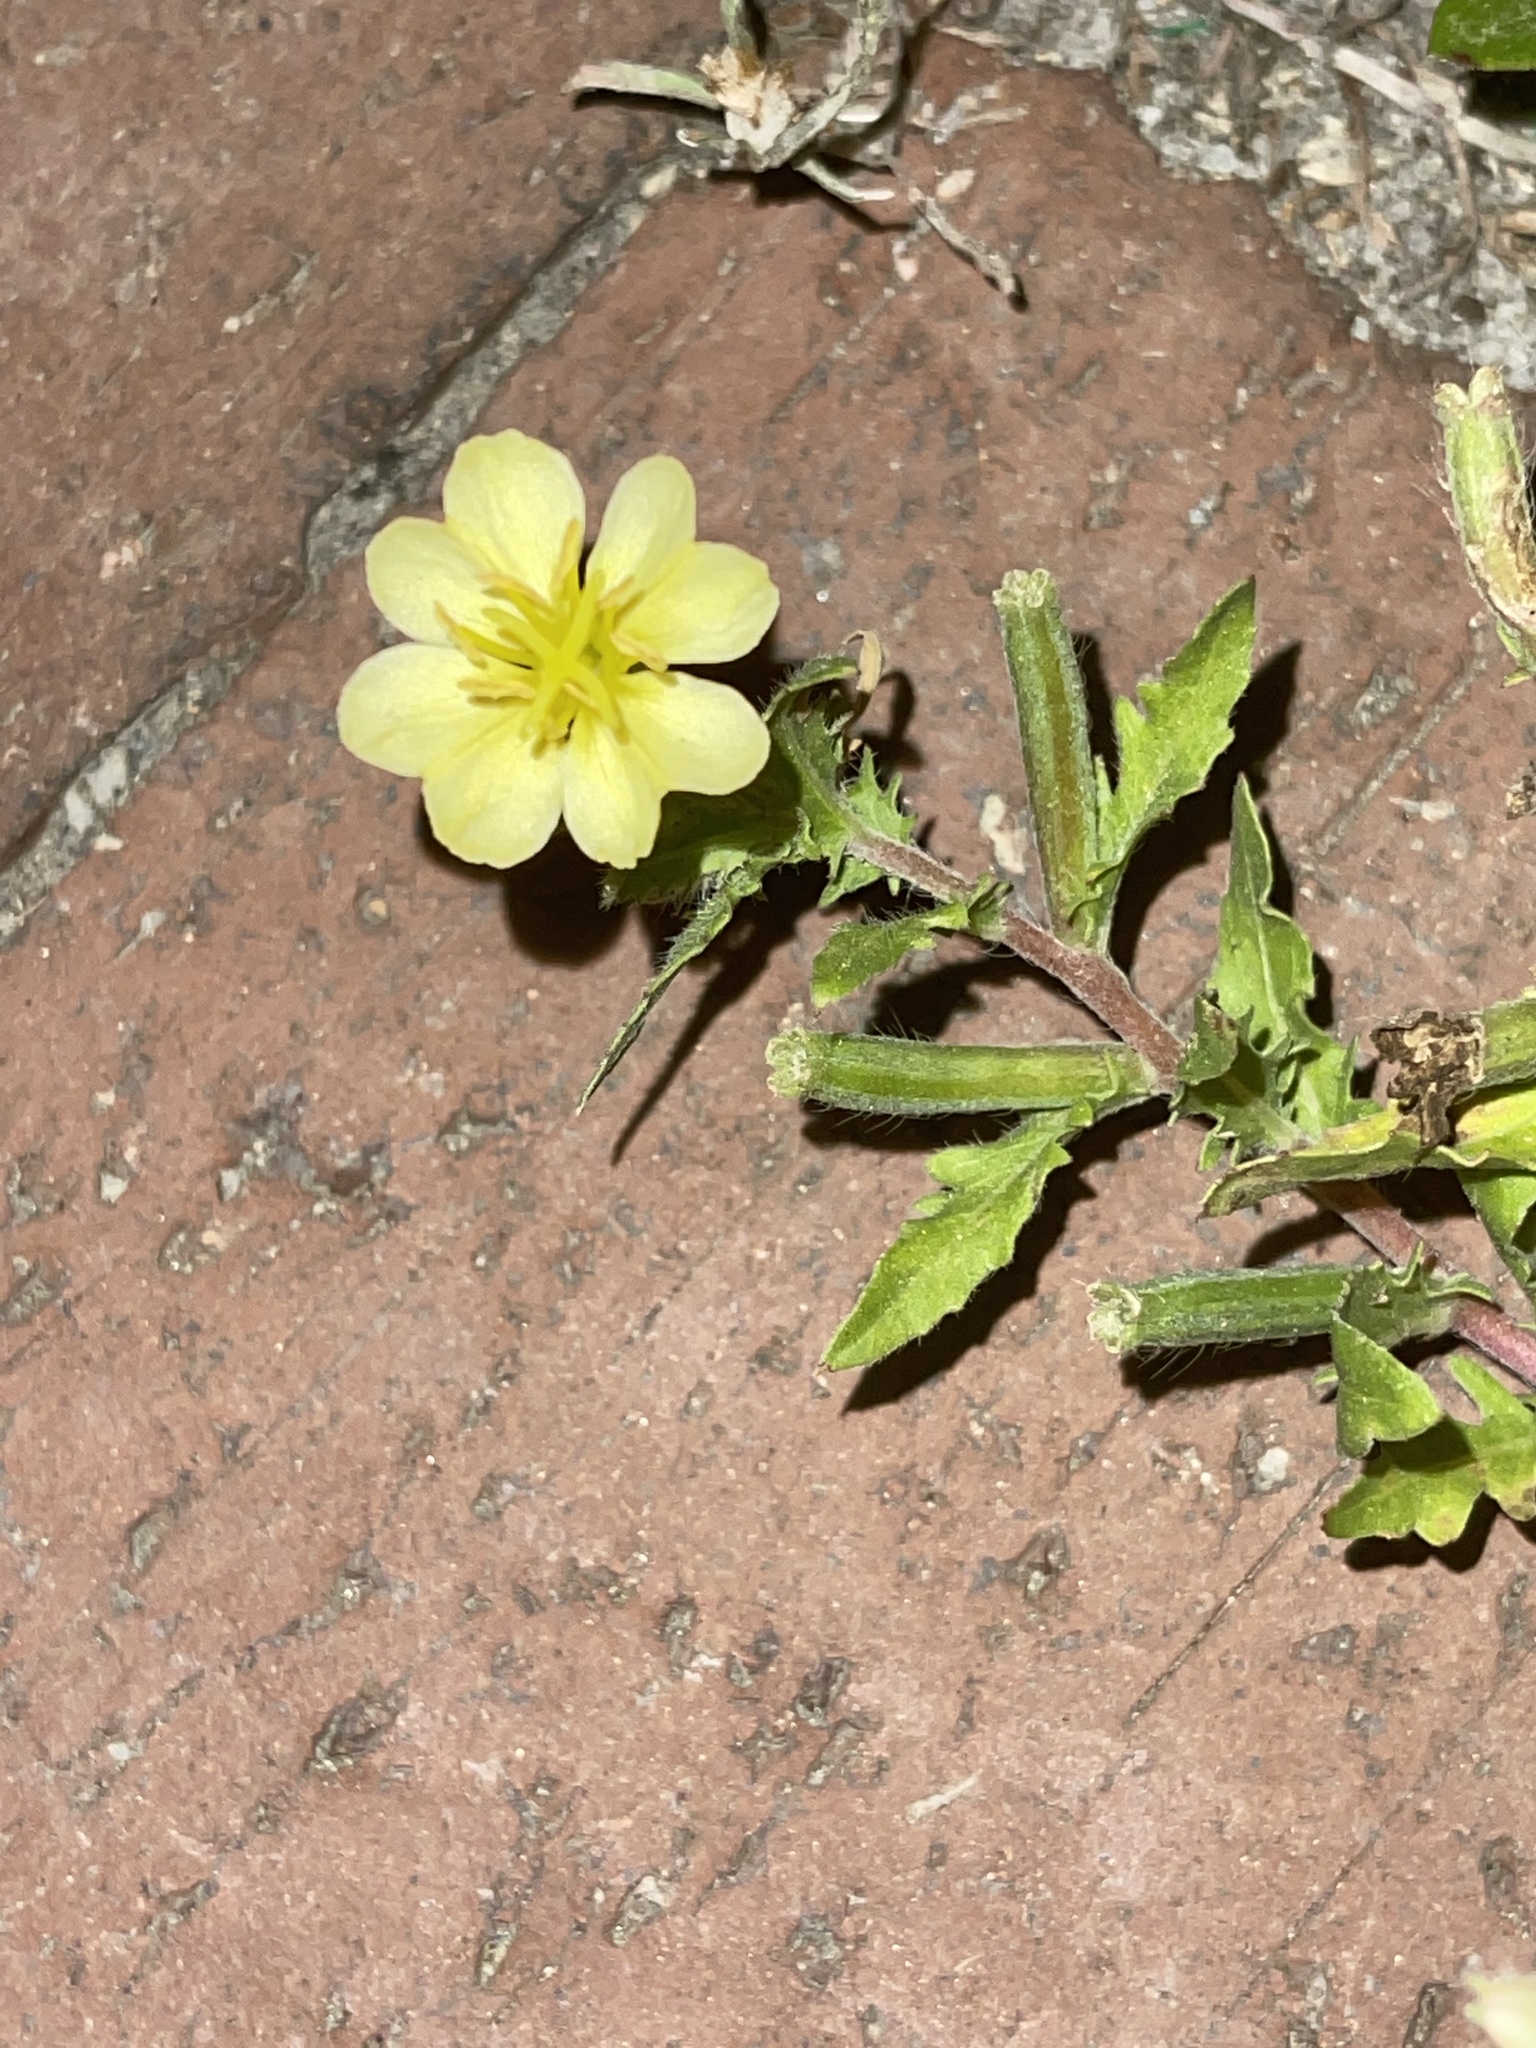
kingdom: Plantae
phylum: Tracheophyta
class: Magnoliopsida
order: Myrtales
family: Onagraceae
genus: Oenothera
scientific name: Oenothera laciniata
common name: Cut-leaved evening-primrose
